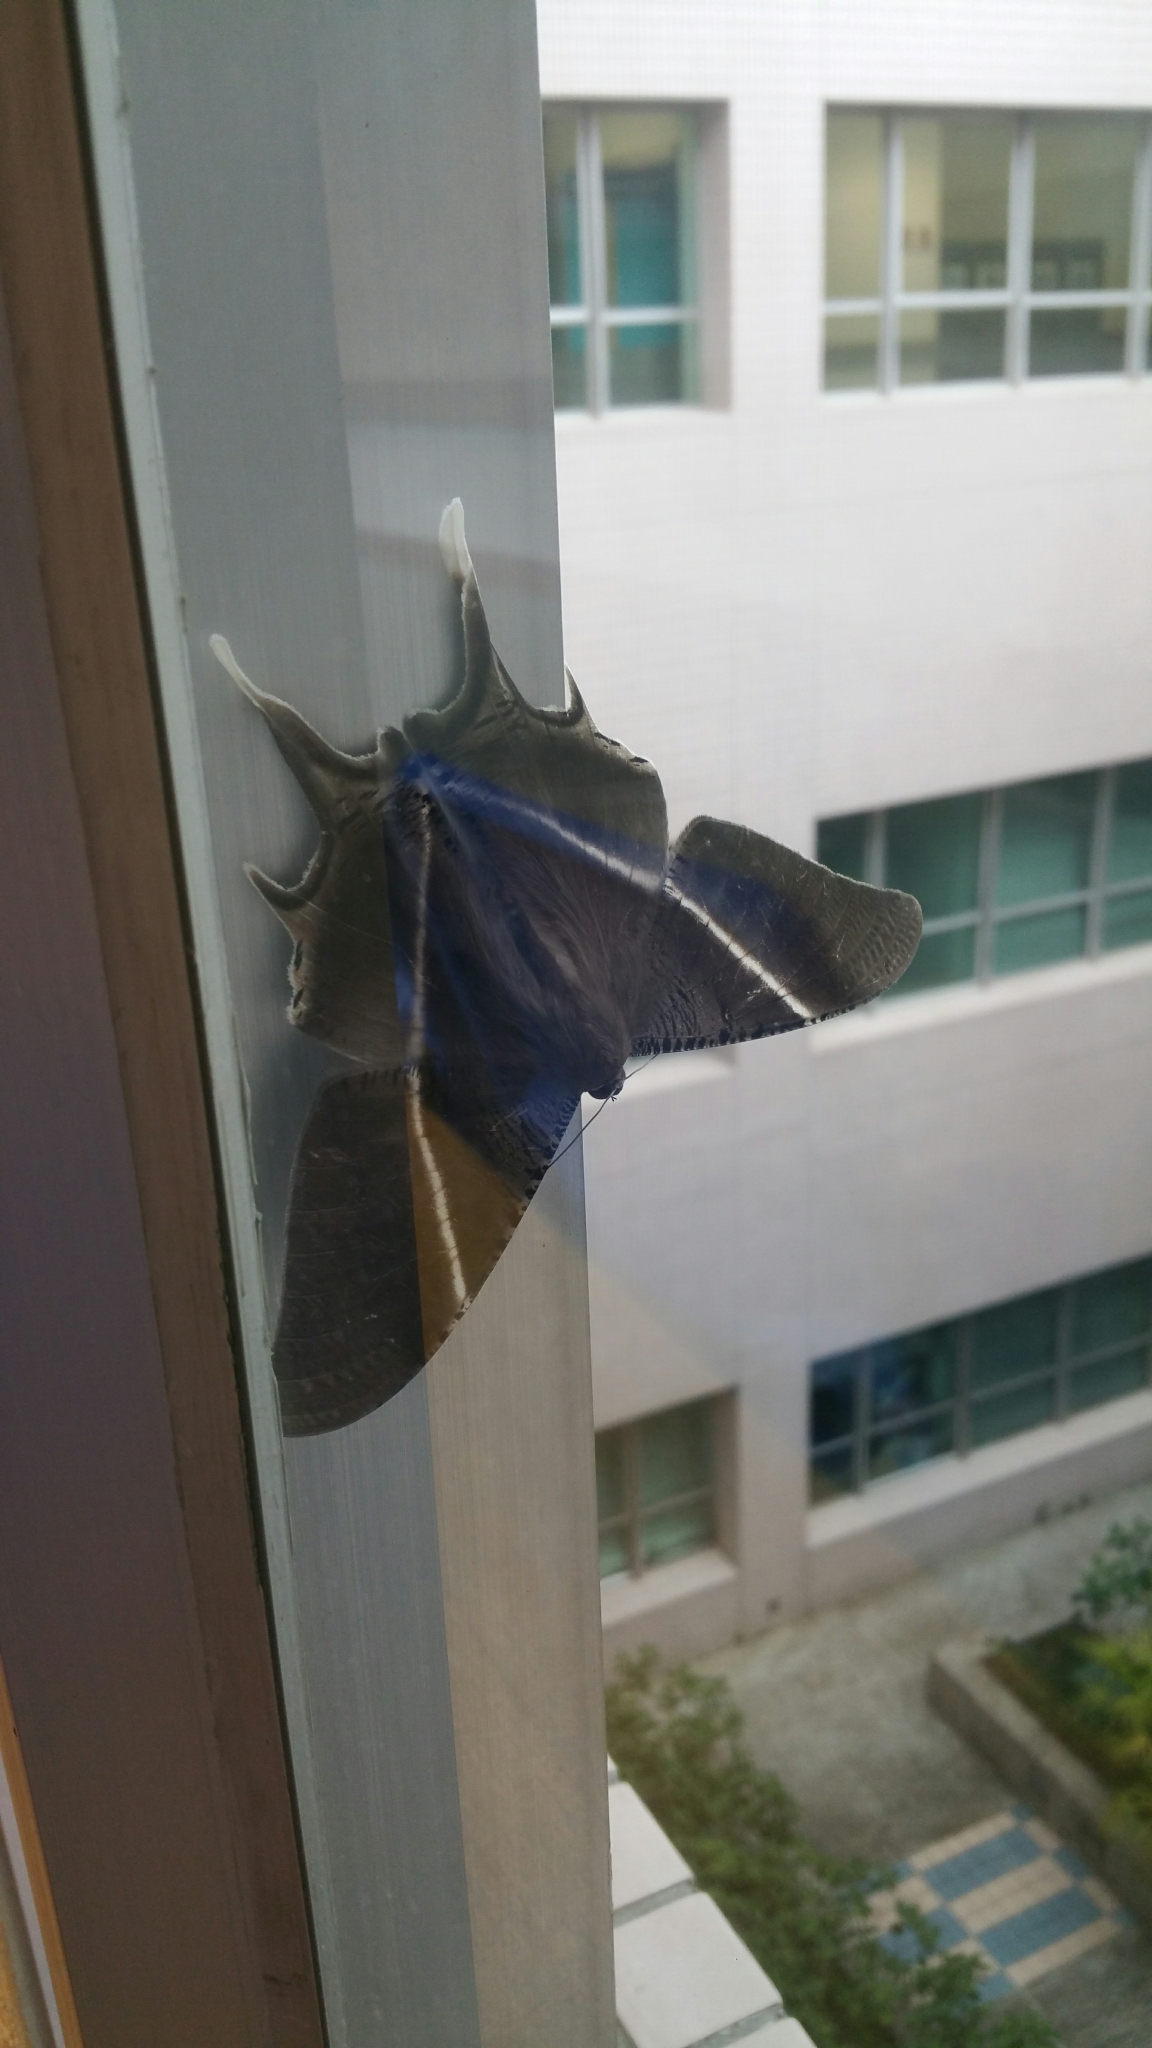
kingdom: Animalia
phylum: Arthropoda
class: Insecta
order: Lepidoptera
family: Uraniidae
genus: Lyssa
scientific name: Lyssa zampa
